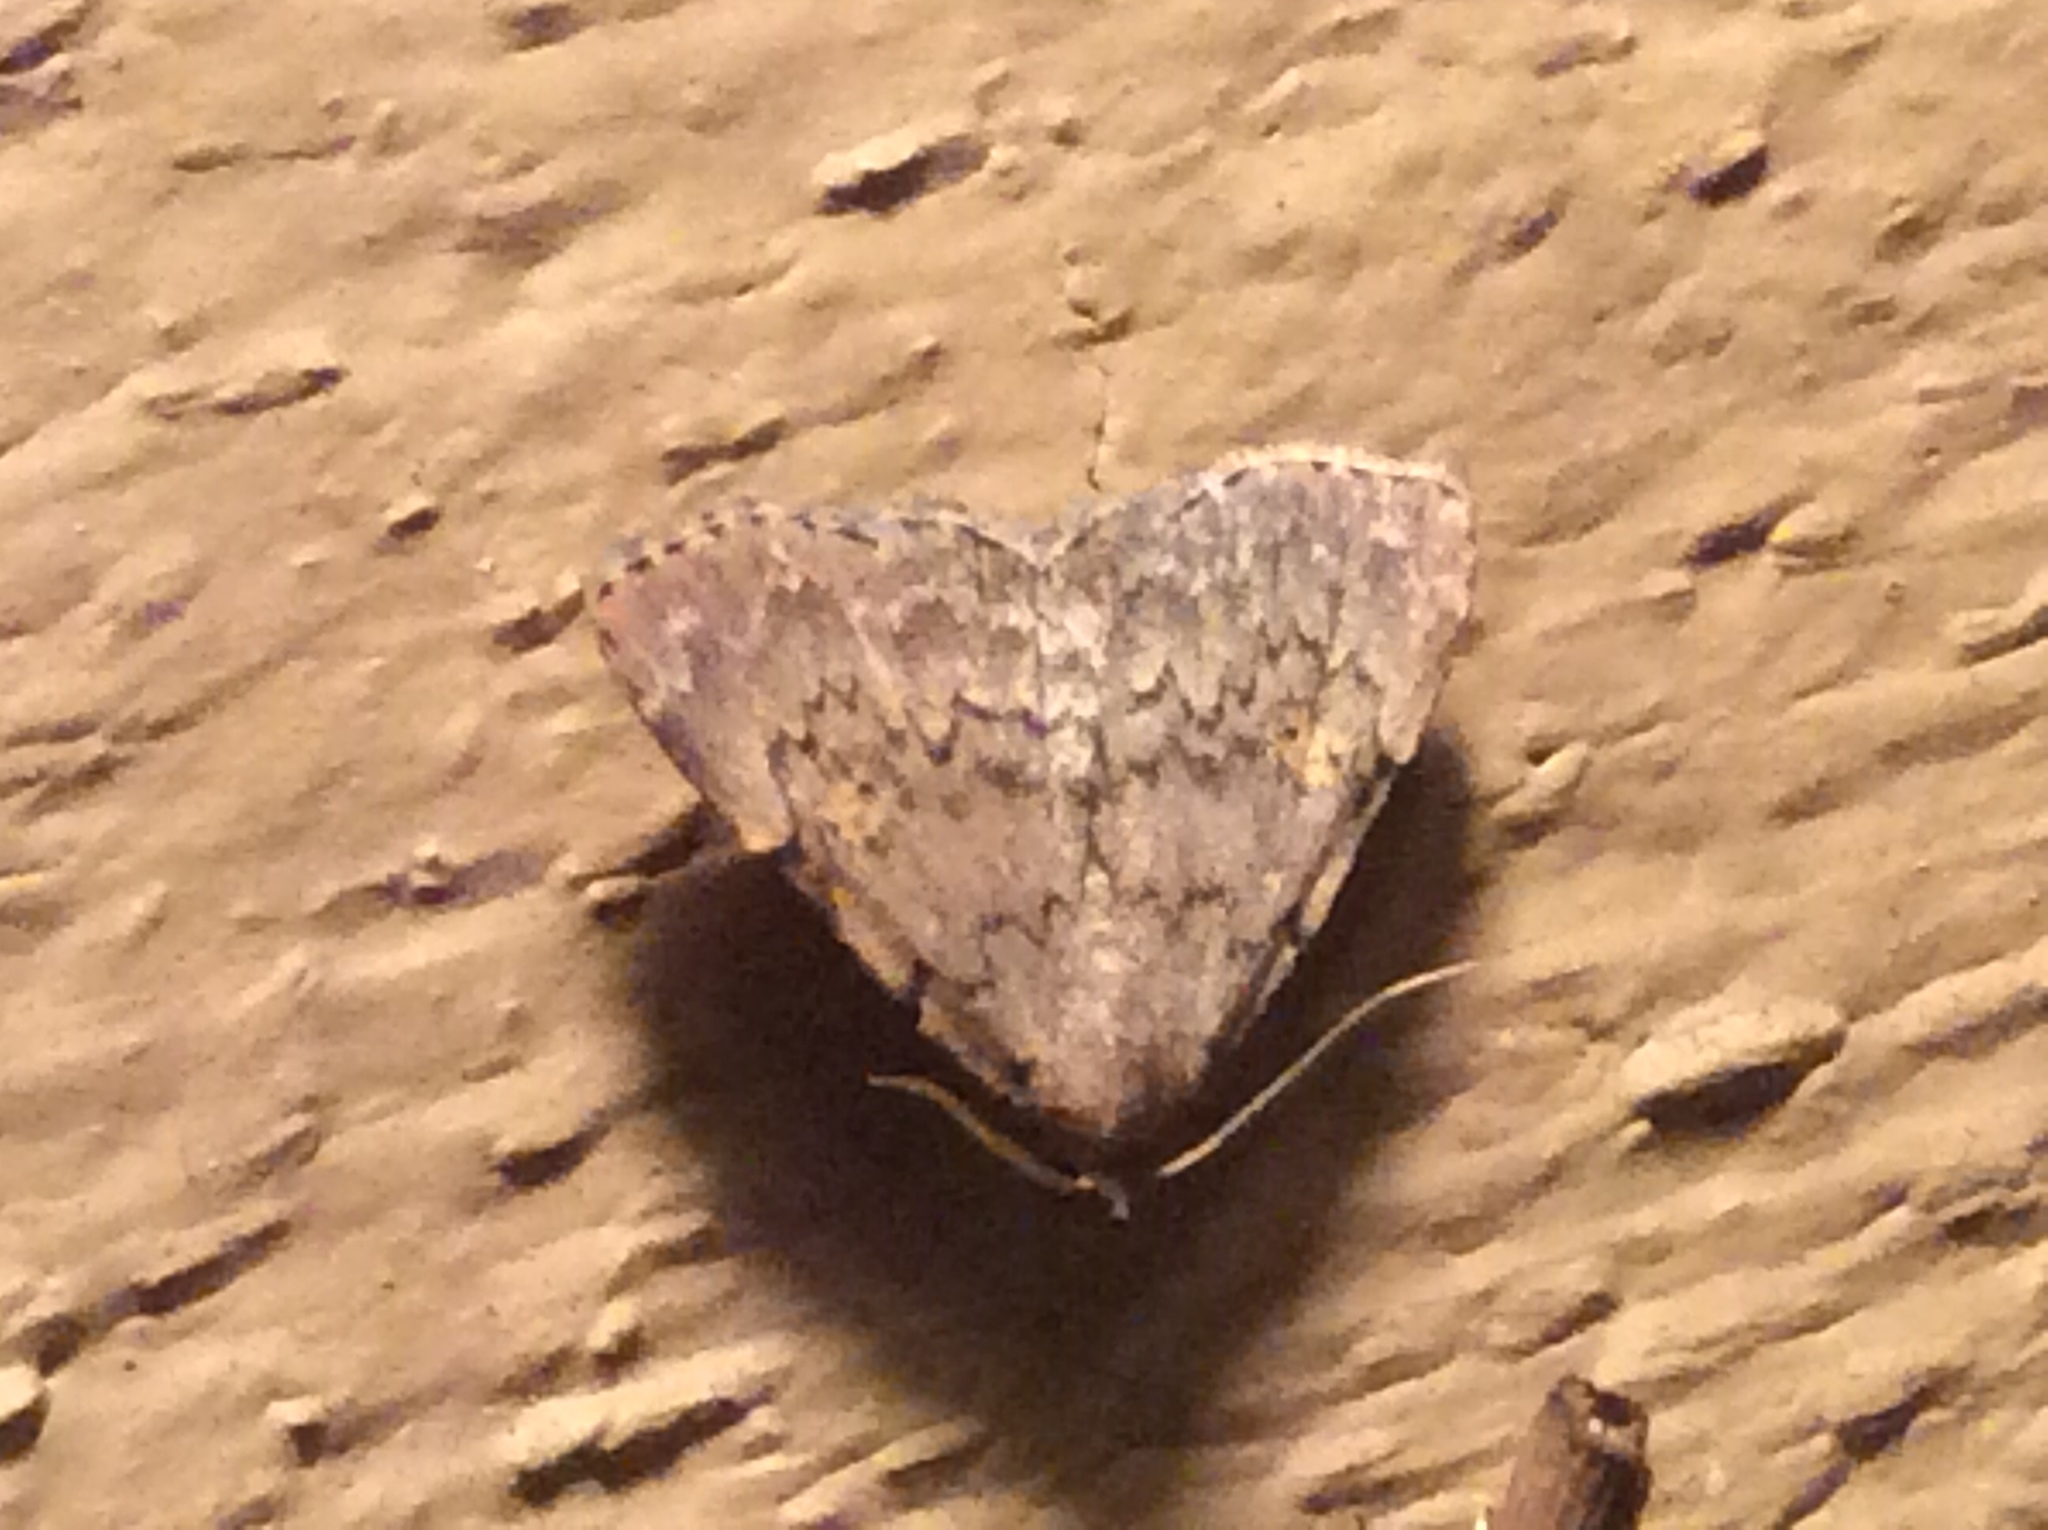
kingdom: Animalia
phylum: Arthropoda
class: Insecta
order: Lepidoptera
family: Erebidae
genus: Idia
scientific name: Idia aemula
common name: Common idia moth
